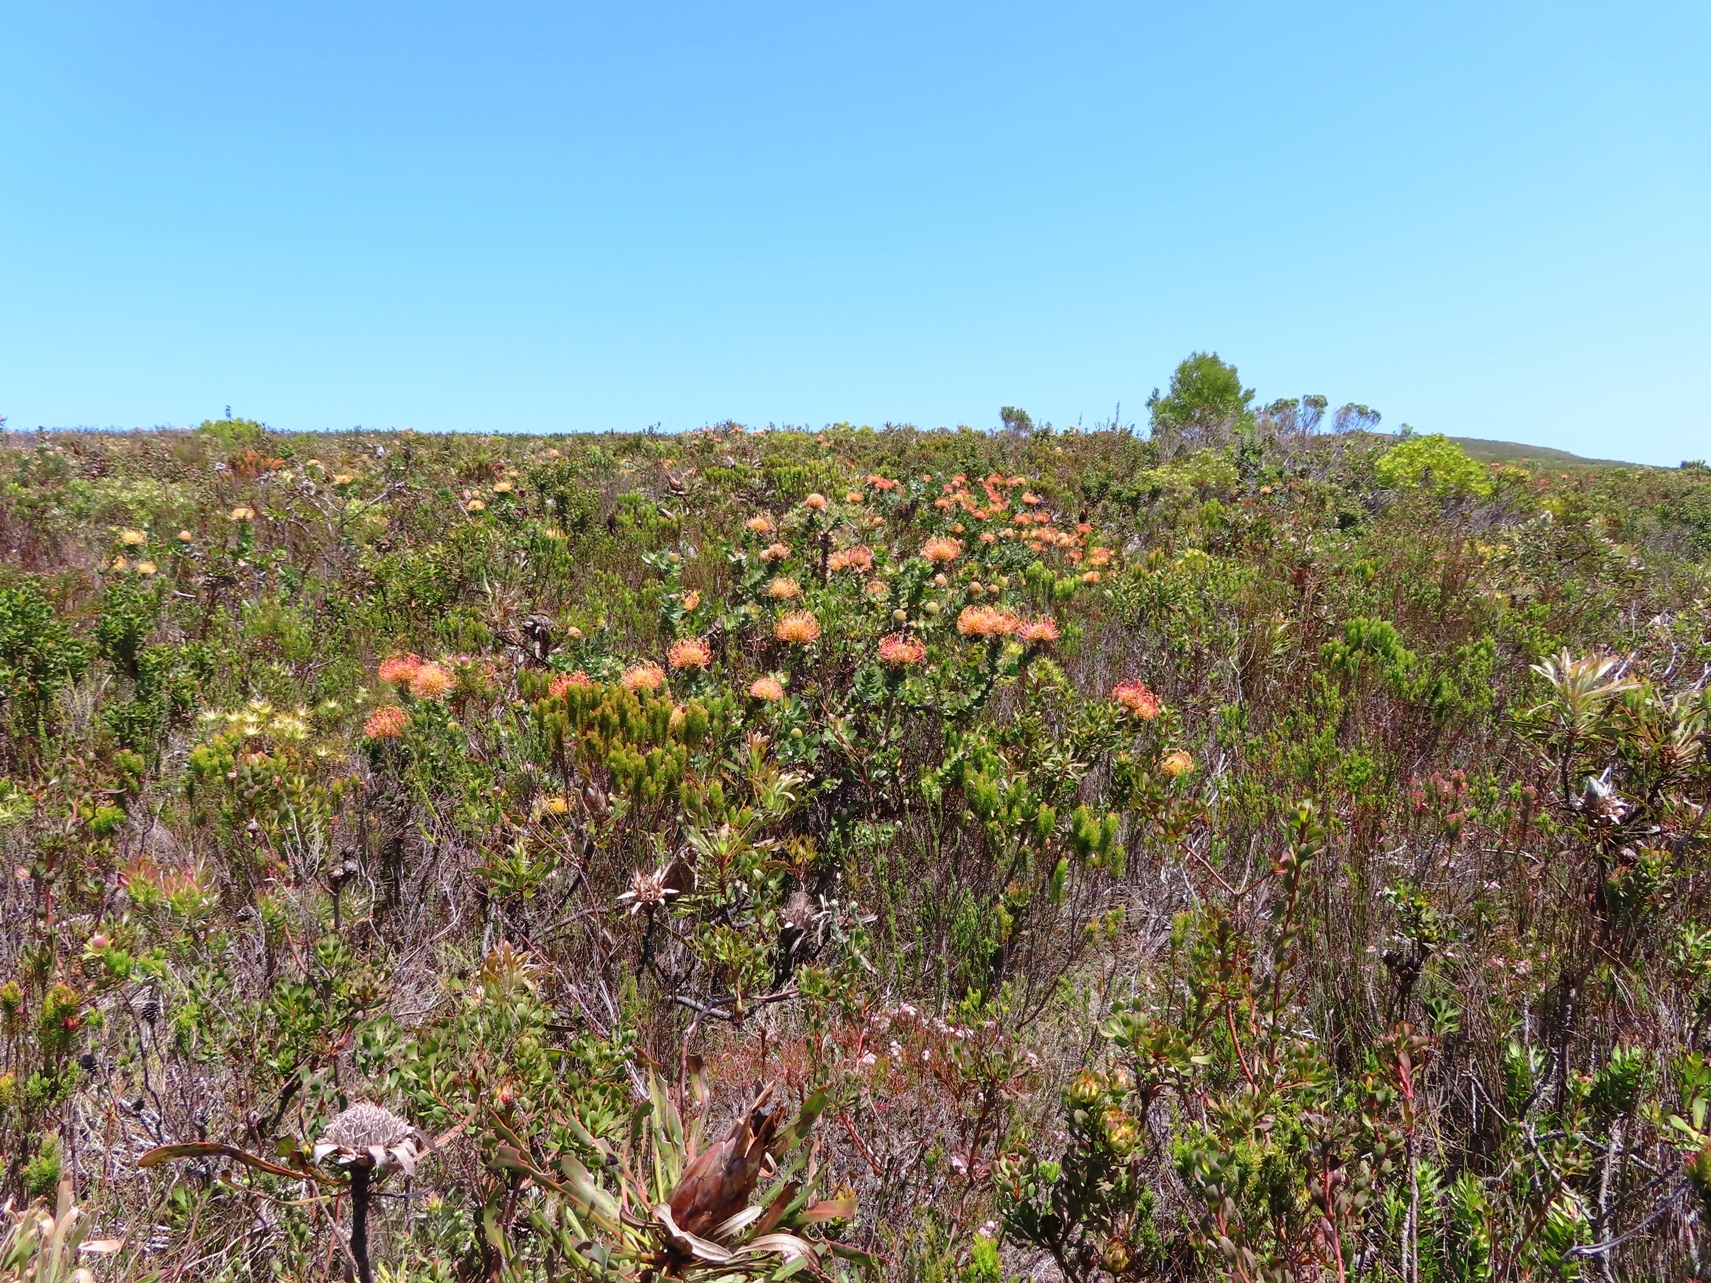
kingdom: Plantae
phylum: Tracheophyta
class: Magnoliopsida
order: Proteales
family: Proteaceae
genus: Leucospermum
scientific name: Leucospermum patersonii
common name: False tree pincushion
